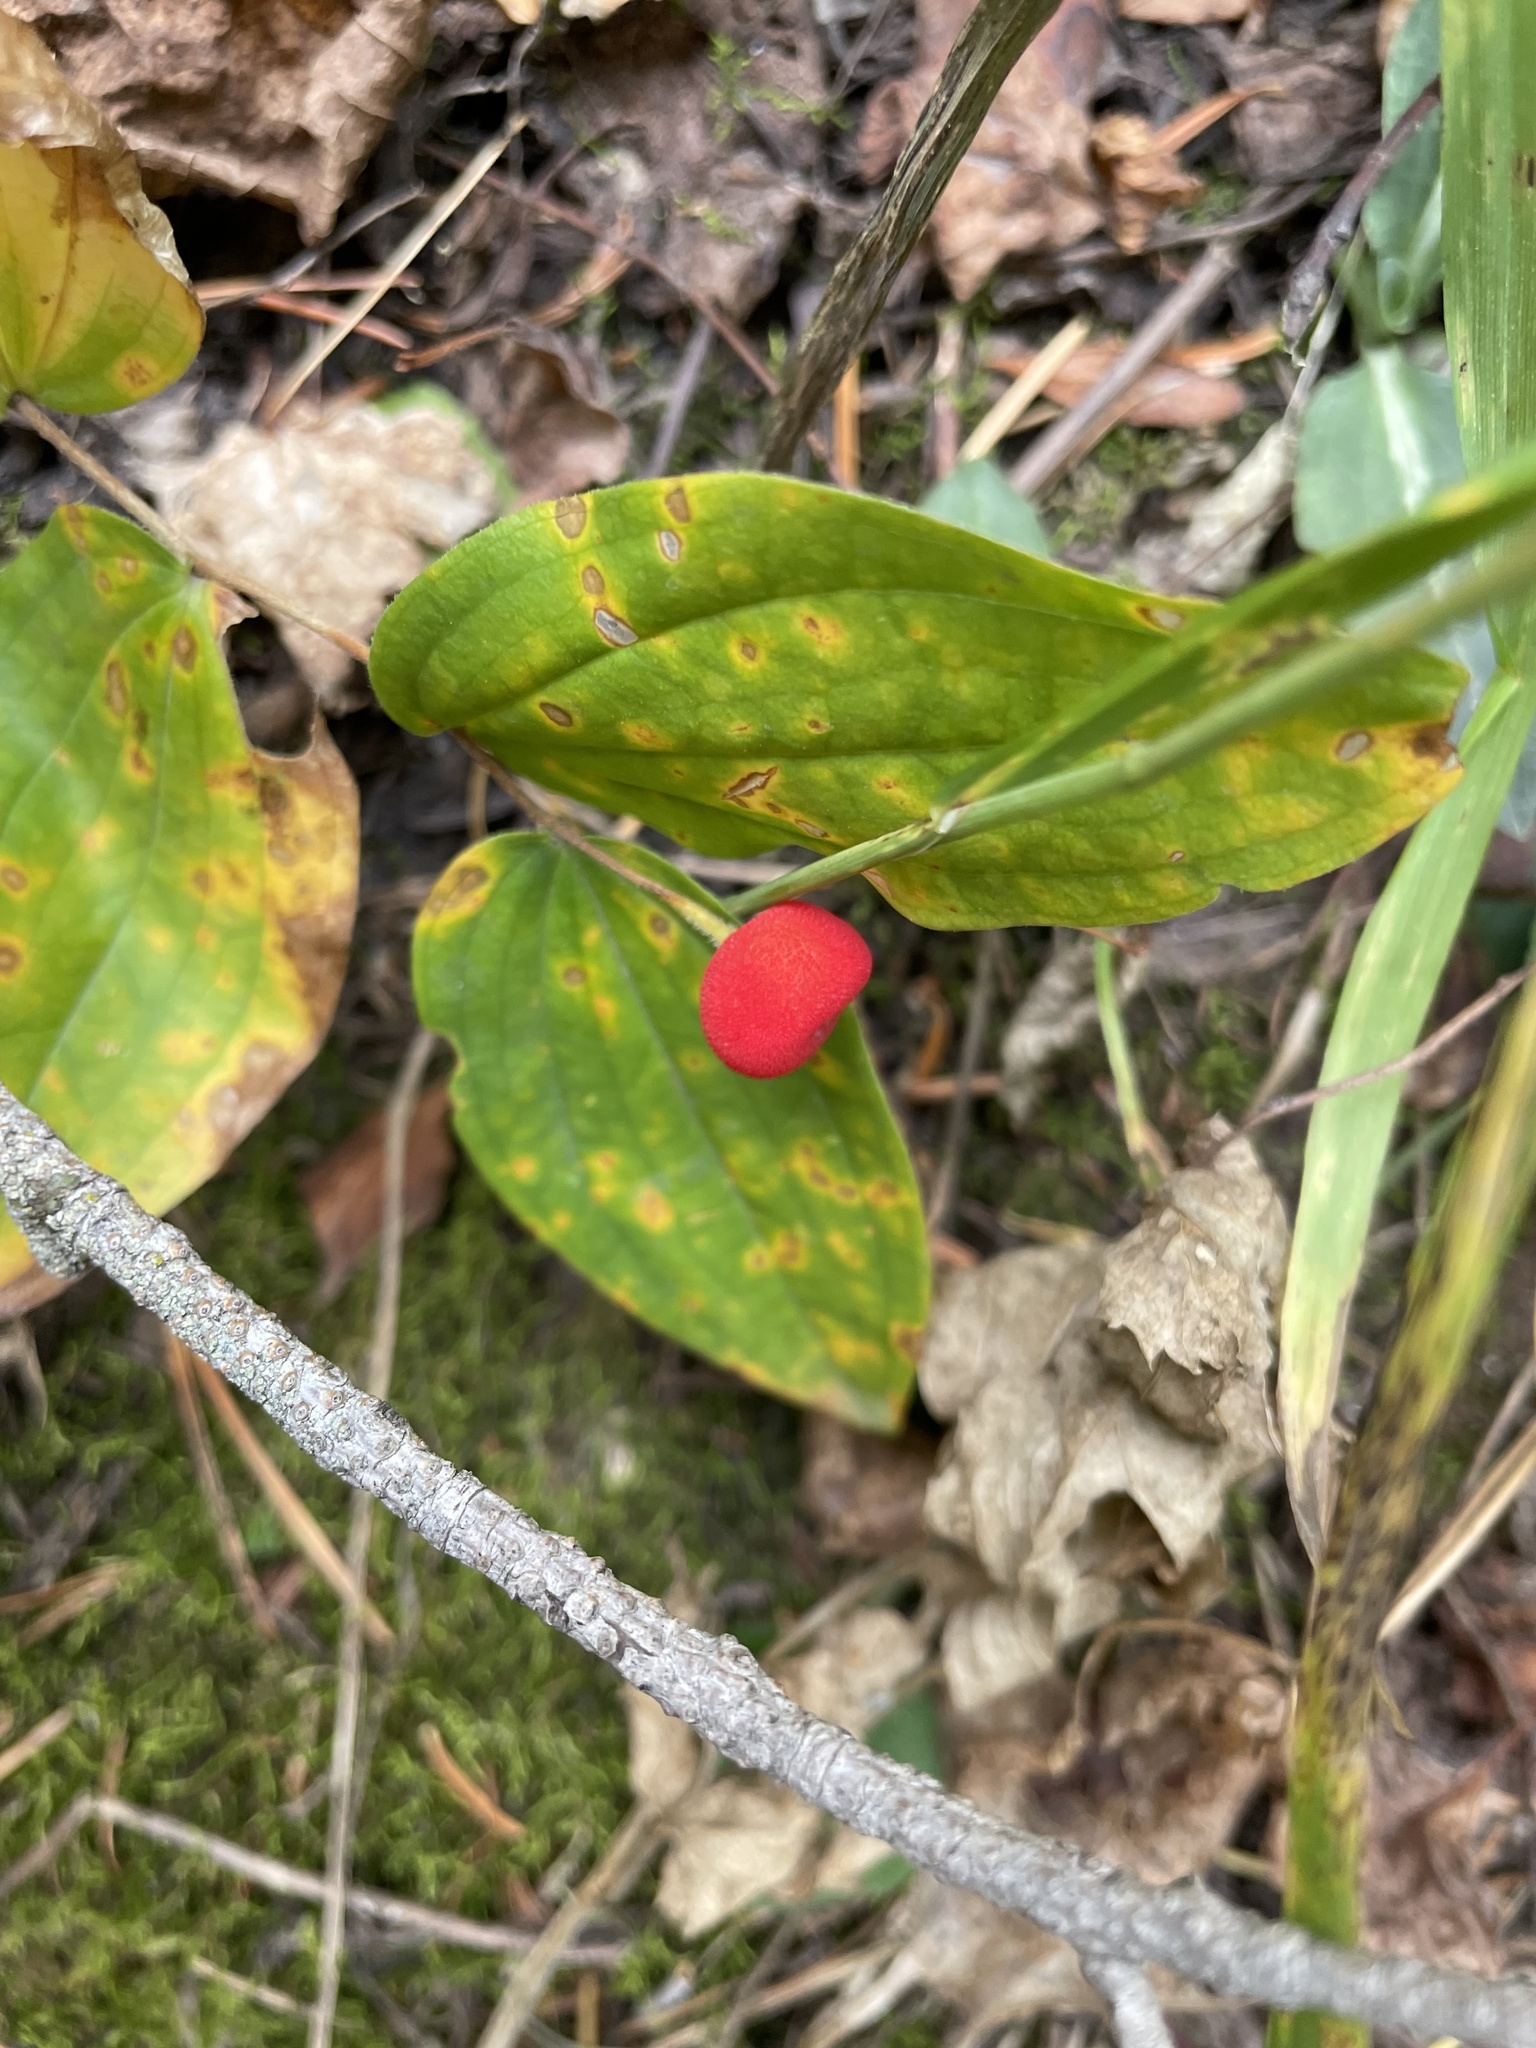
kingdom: Plantae
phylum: Tracheophyta
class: Liliopsida
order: Liliales
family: Liliaceae
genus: Prosartes
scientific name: Prosartes trachycarpa
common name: Rough-fruit fairy-bells
